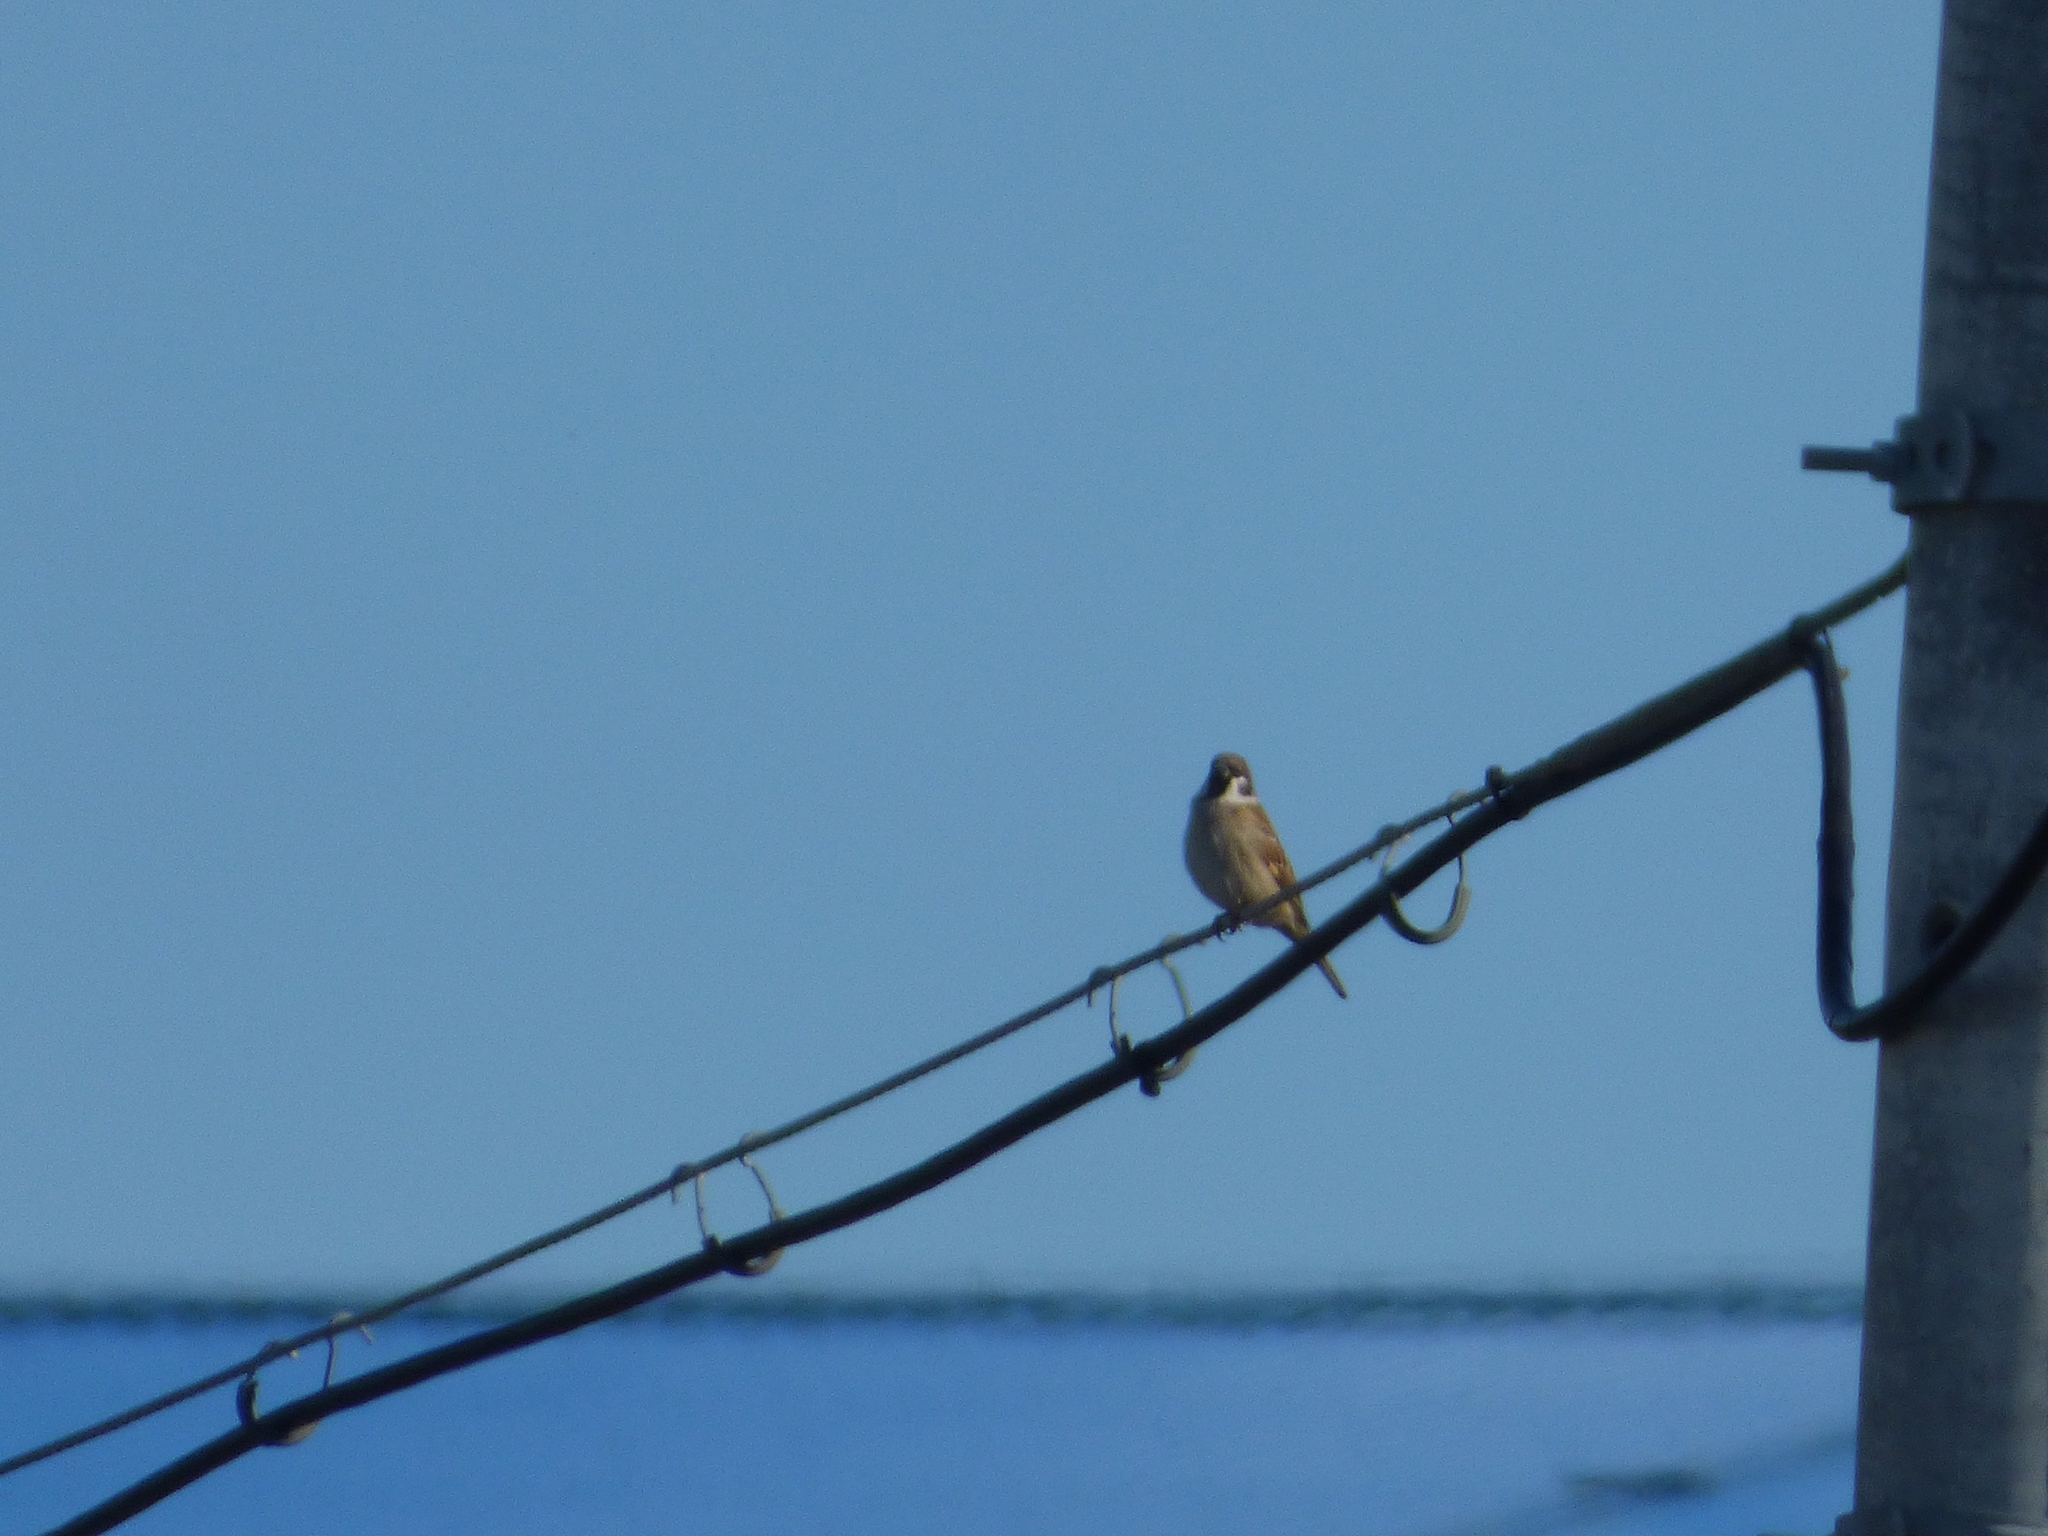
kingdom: Animalia
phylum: Chordata
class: Aves
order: Passeriformes
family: Passeridae
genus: Passer
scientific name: Passer montanus
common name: Eurasian tree sparrow
